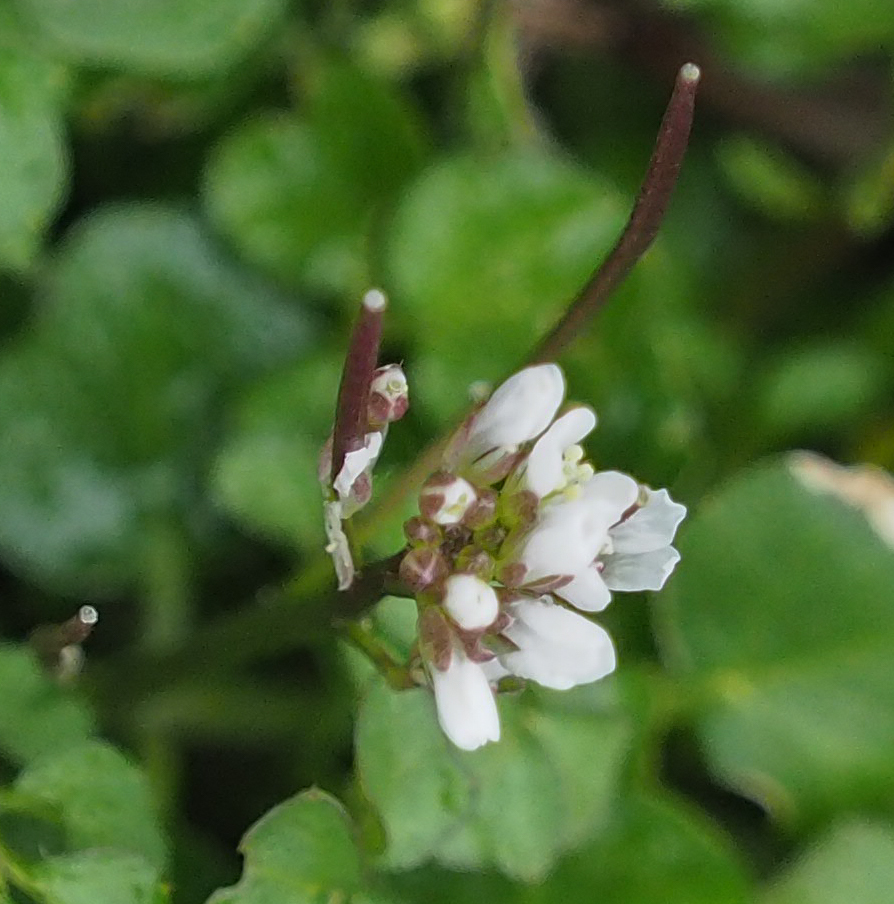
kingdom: Plantae
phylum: Tracheophyta
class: Magnoliopsida
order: Brassicales
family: Brassicaceae
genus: Cardamine
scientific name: Cardamine hirsuta
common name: Hairy bittercress
